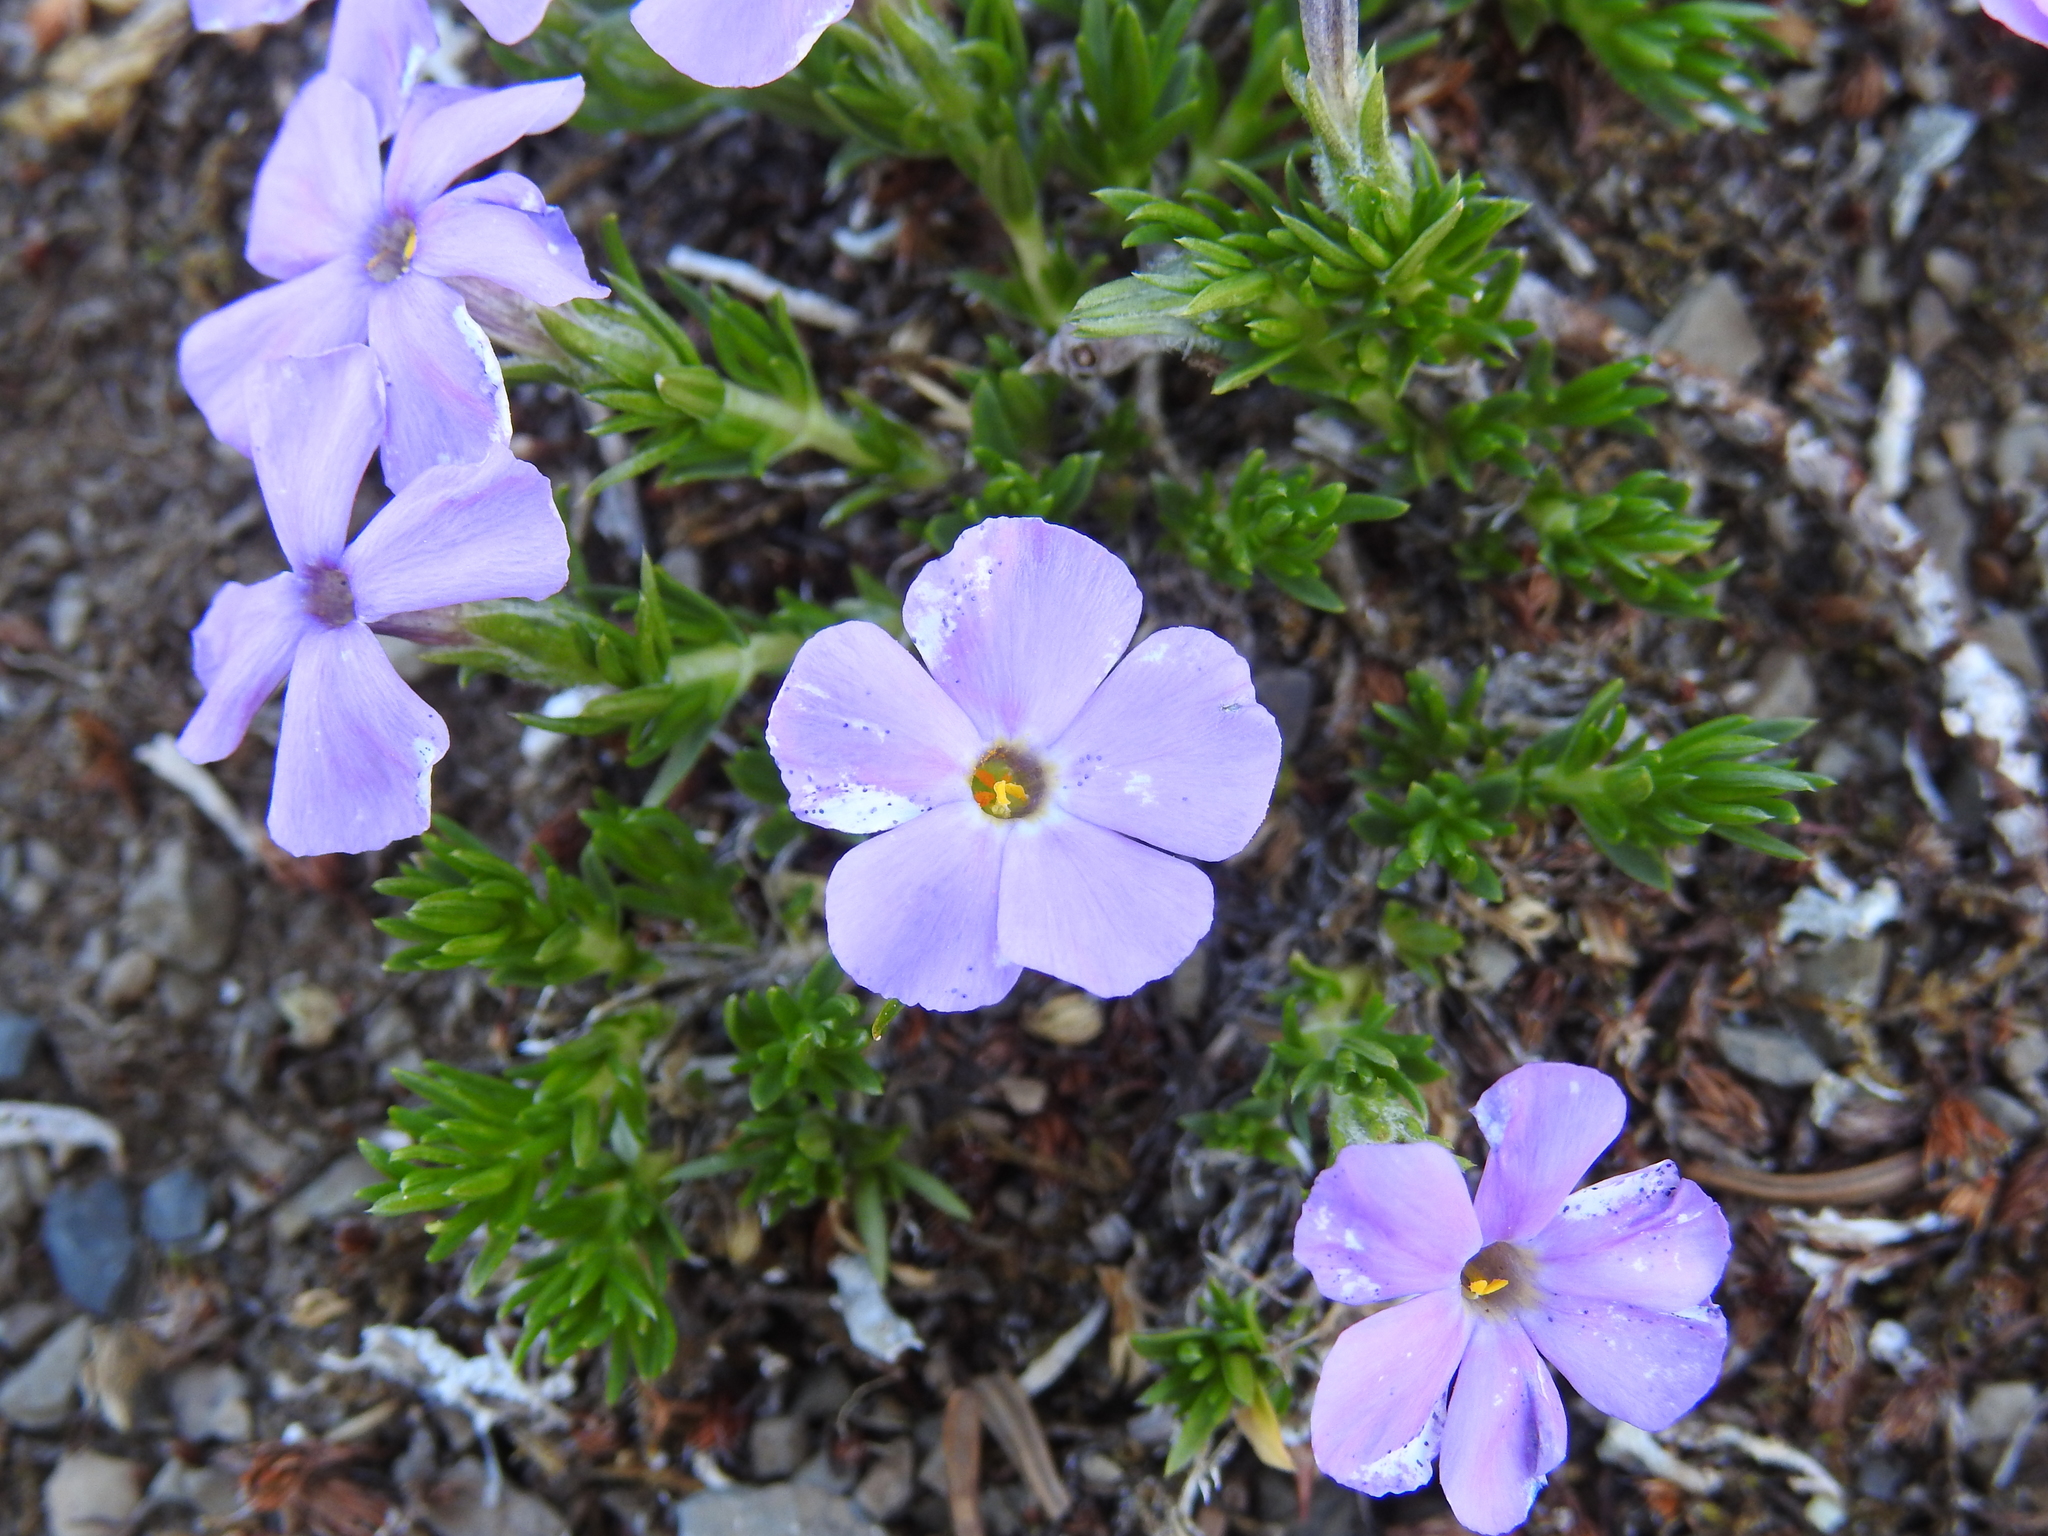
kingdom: Plantae
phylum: Tracheophyta
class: Magnoliopsida
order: Ericales
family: Polemoniaceae
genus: Phlox
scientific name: Phlox diffusa
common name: Mat phlox
